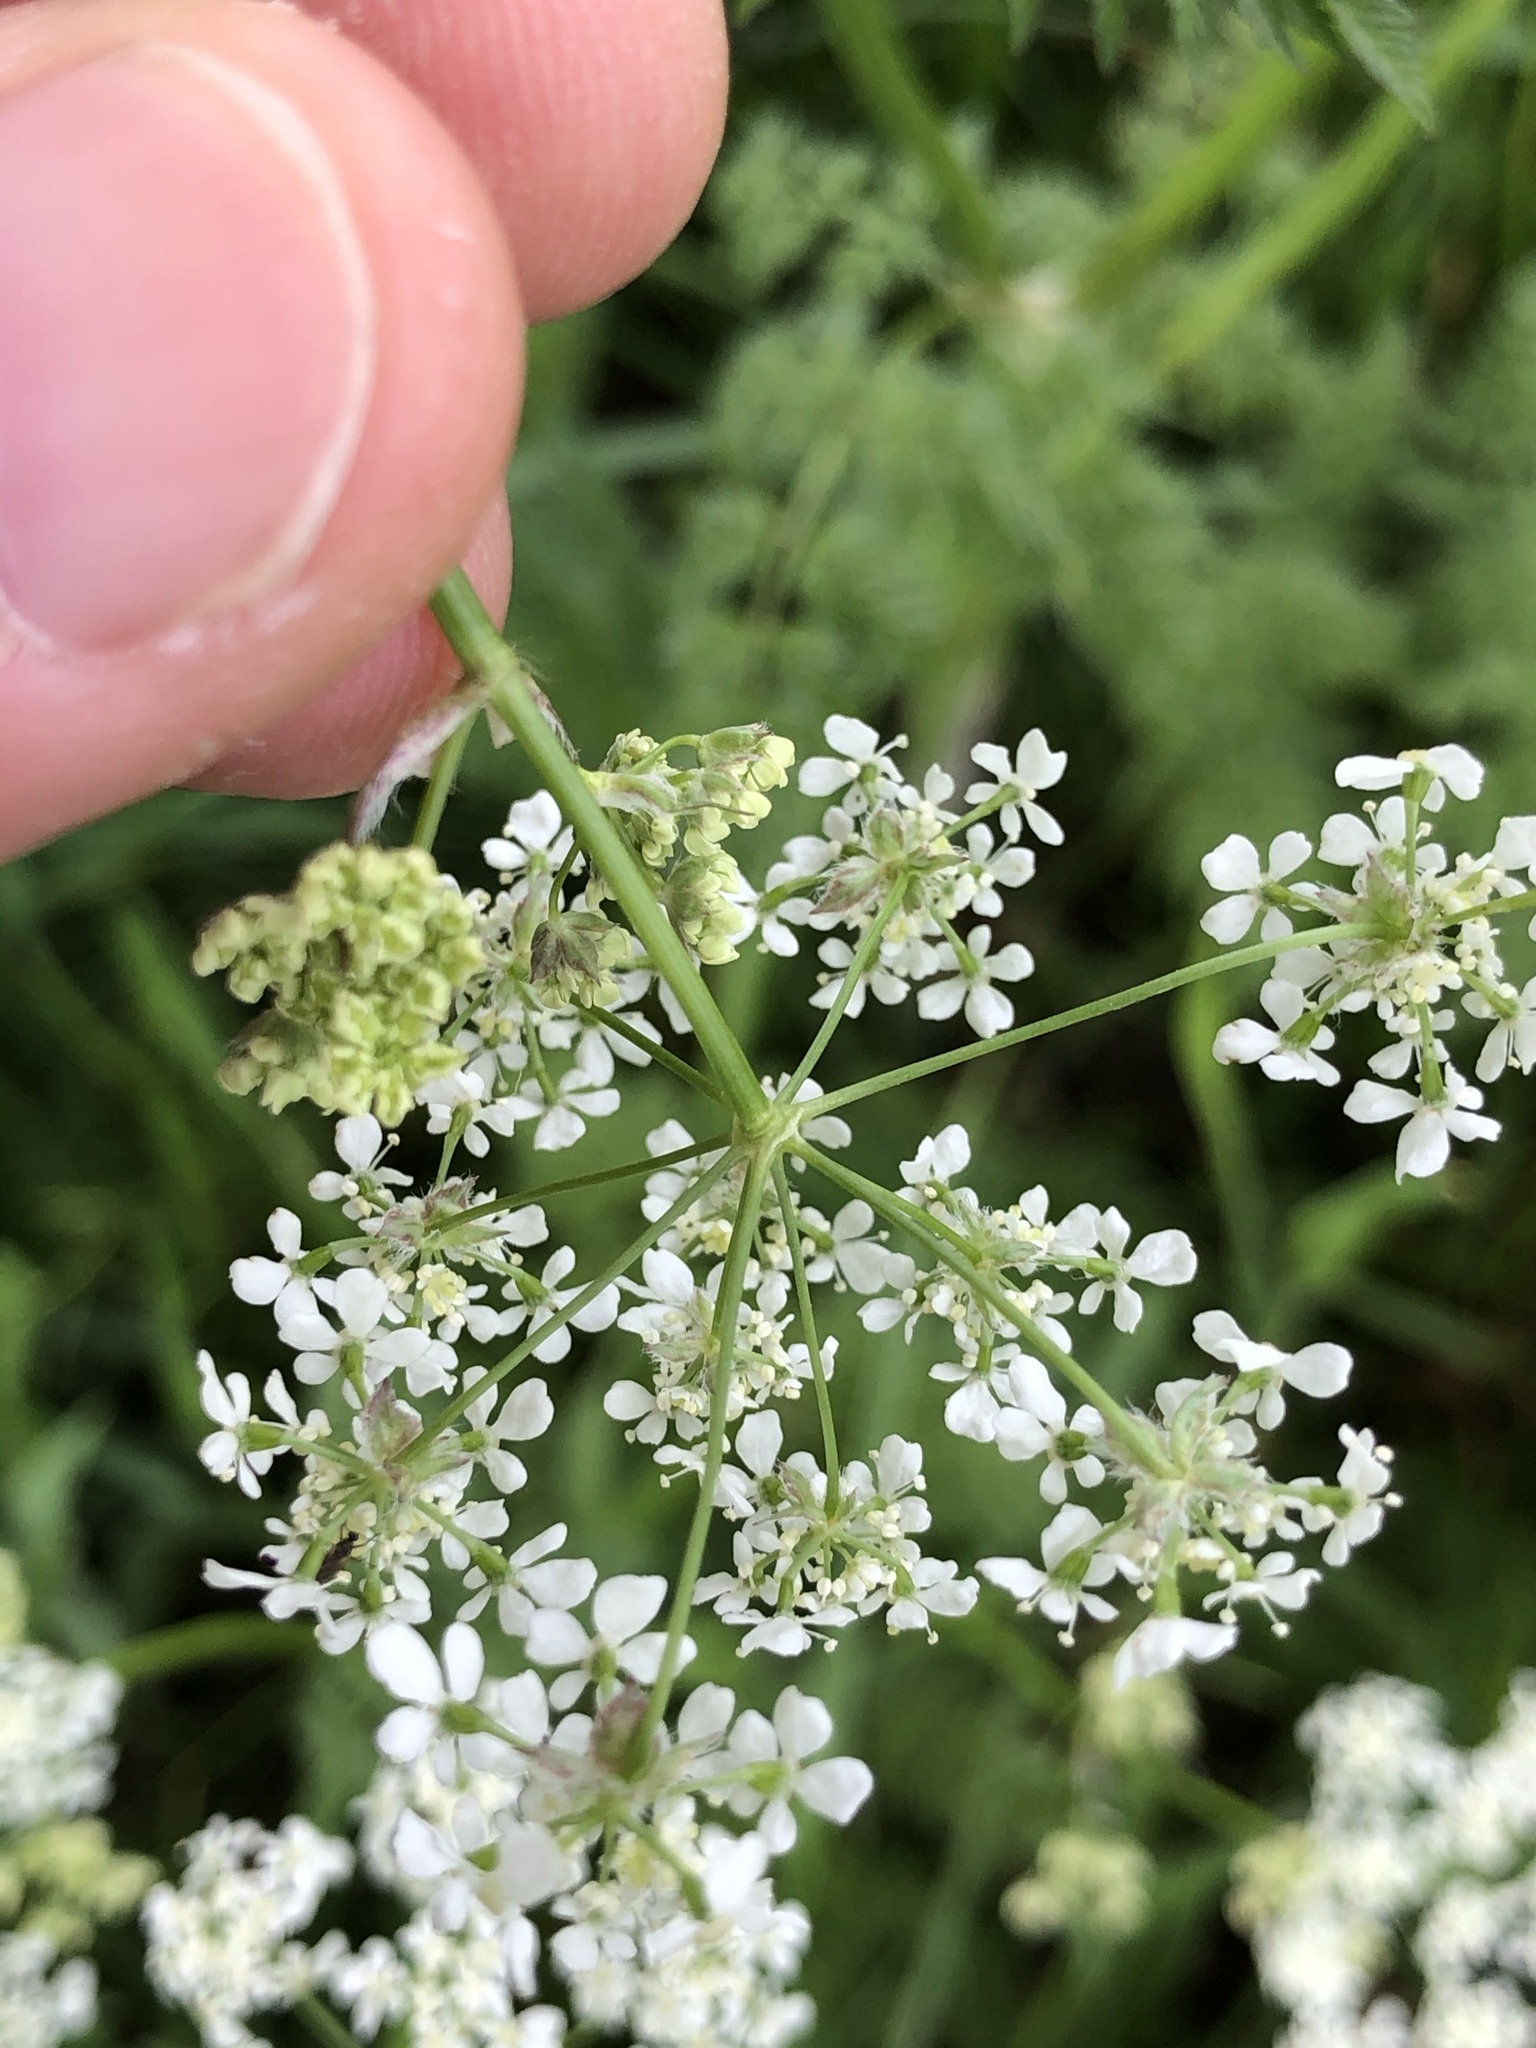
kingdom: Plantae
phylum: Tracheophyta
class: Magnoliopsida
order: Apiales
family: Apiaceae
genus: Anthriscus
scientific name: Anthriscus sylvestris
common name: Cow parsley
